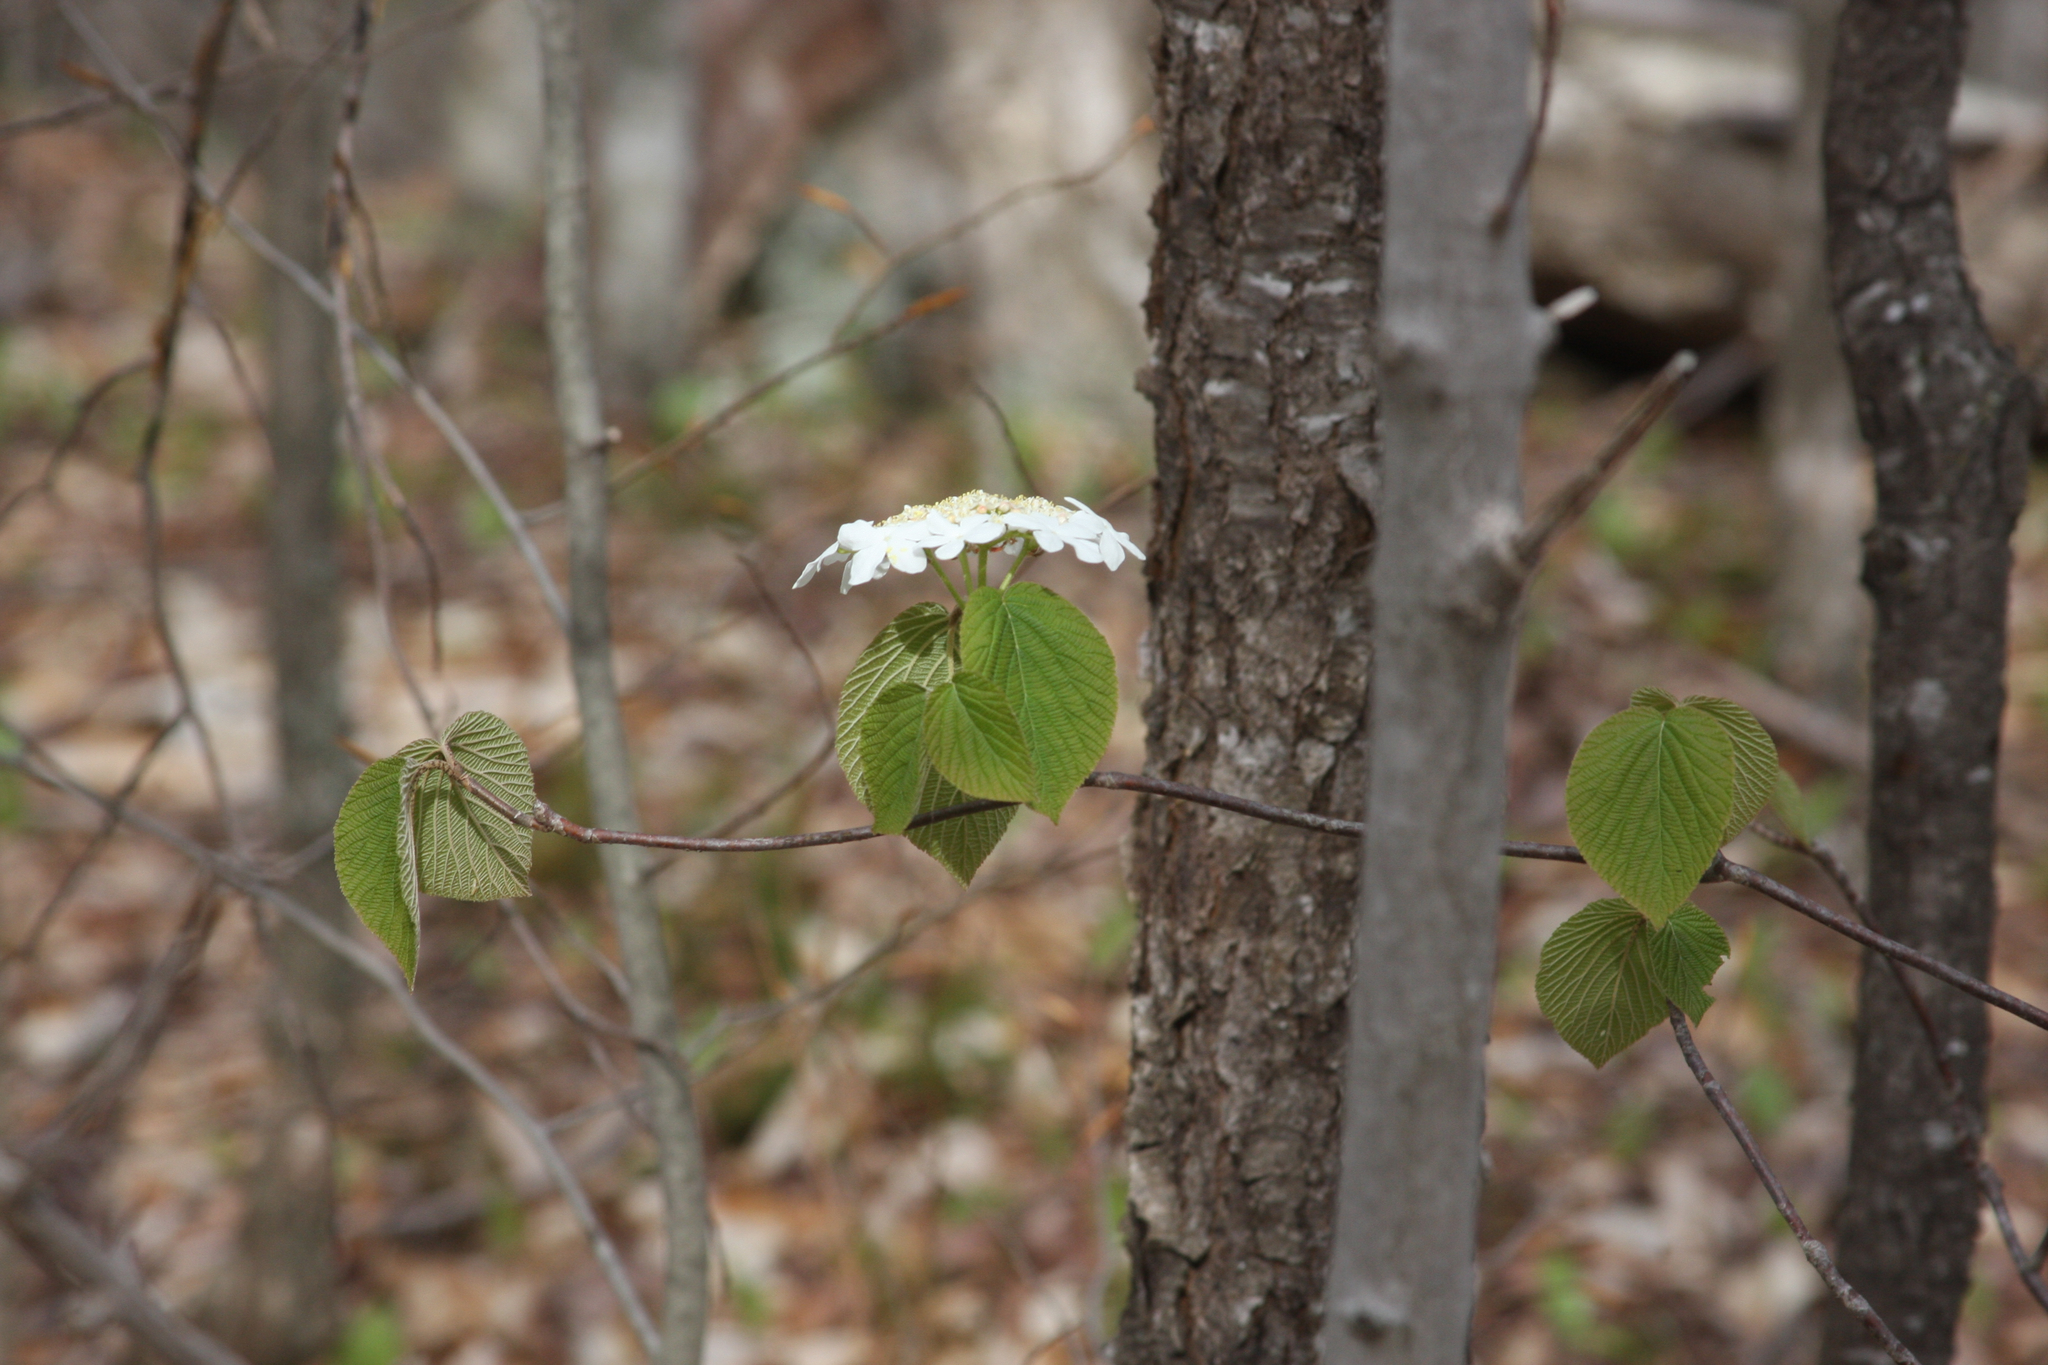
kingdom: Plantae
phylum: Tracheophyta
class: Magnoliopsida
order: Dipsacales
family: Viburnaceae
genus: Viburnum
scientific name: Viburnum lantanoides
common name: Hobblebush
